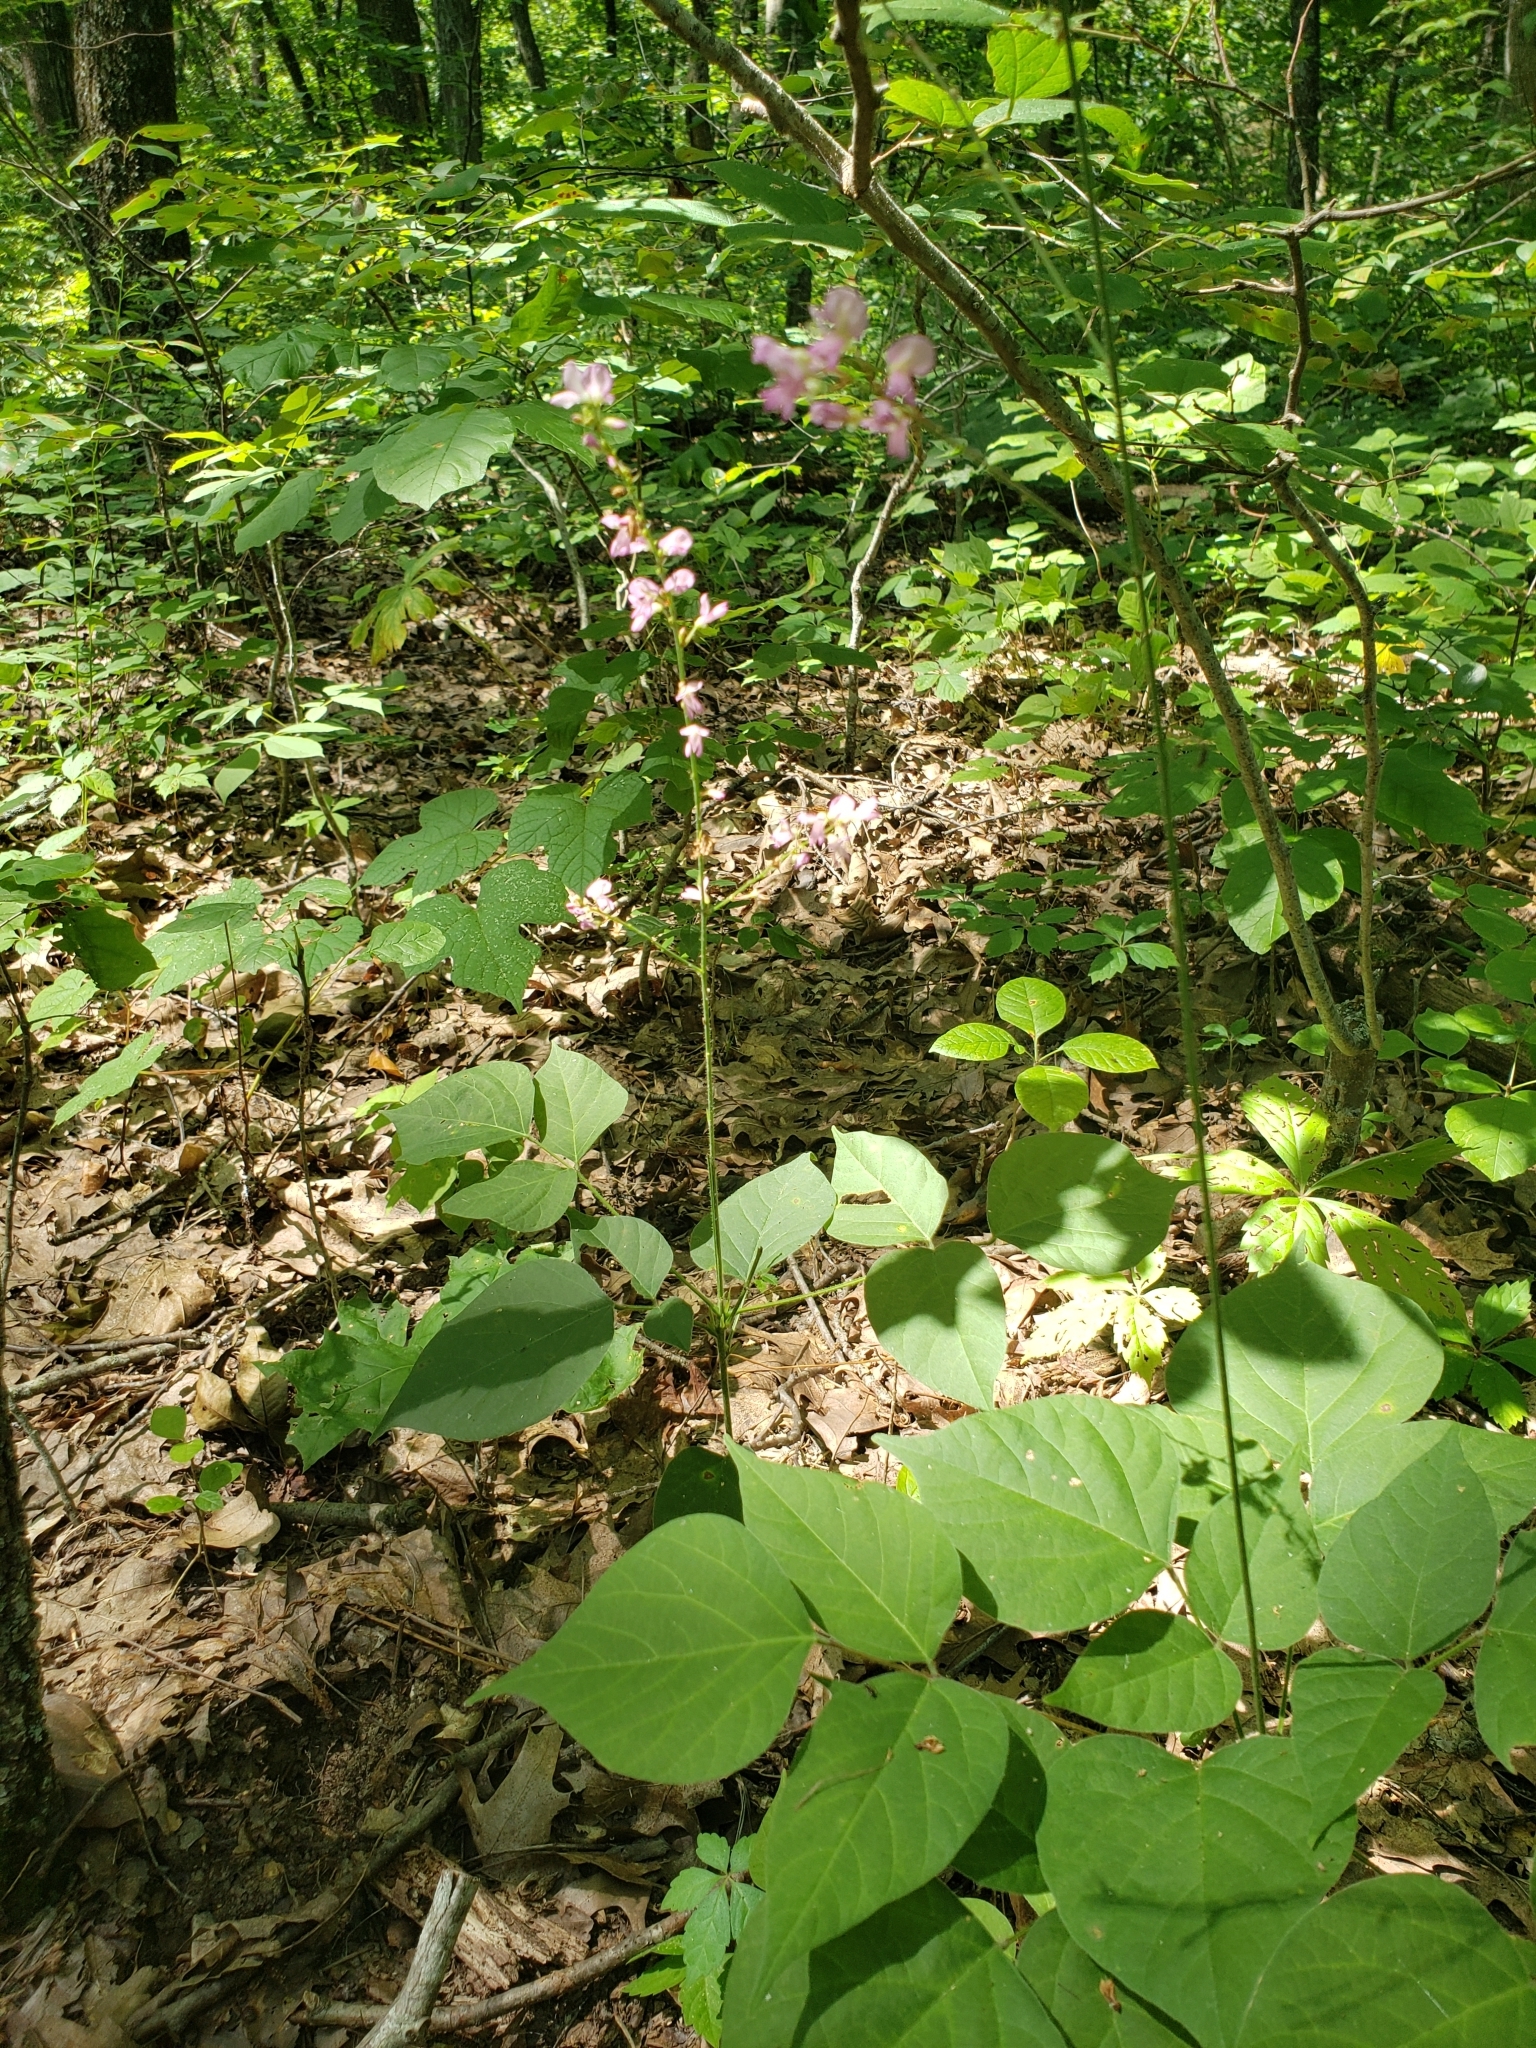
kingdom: Plantae
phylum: Tracheophyta
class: Magnoliopsida
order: Fabales
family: Fabaceae
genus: Hylodesmum
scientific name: Hylodesmum glutinosum
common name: Clustered-leaved tick-trefoil
